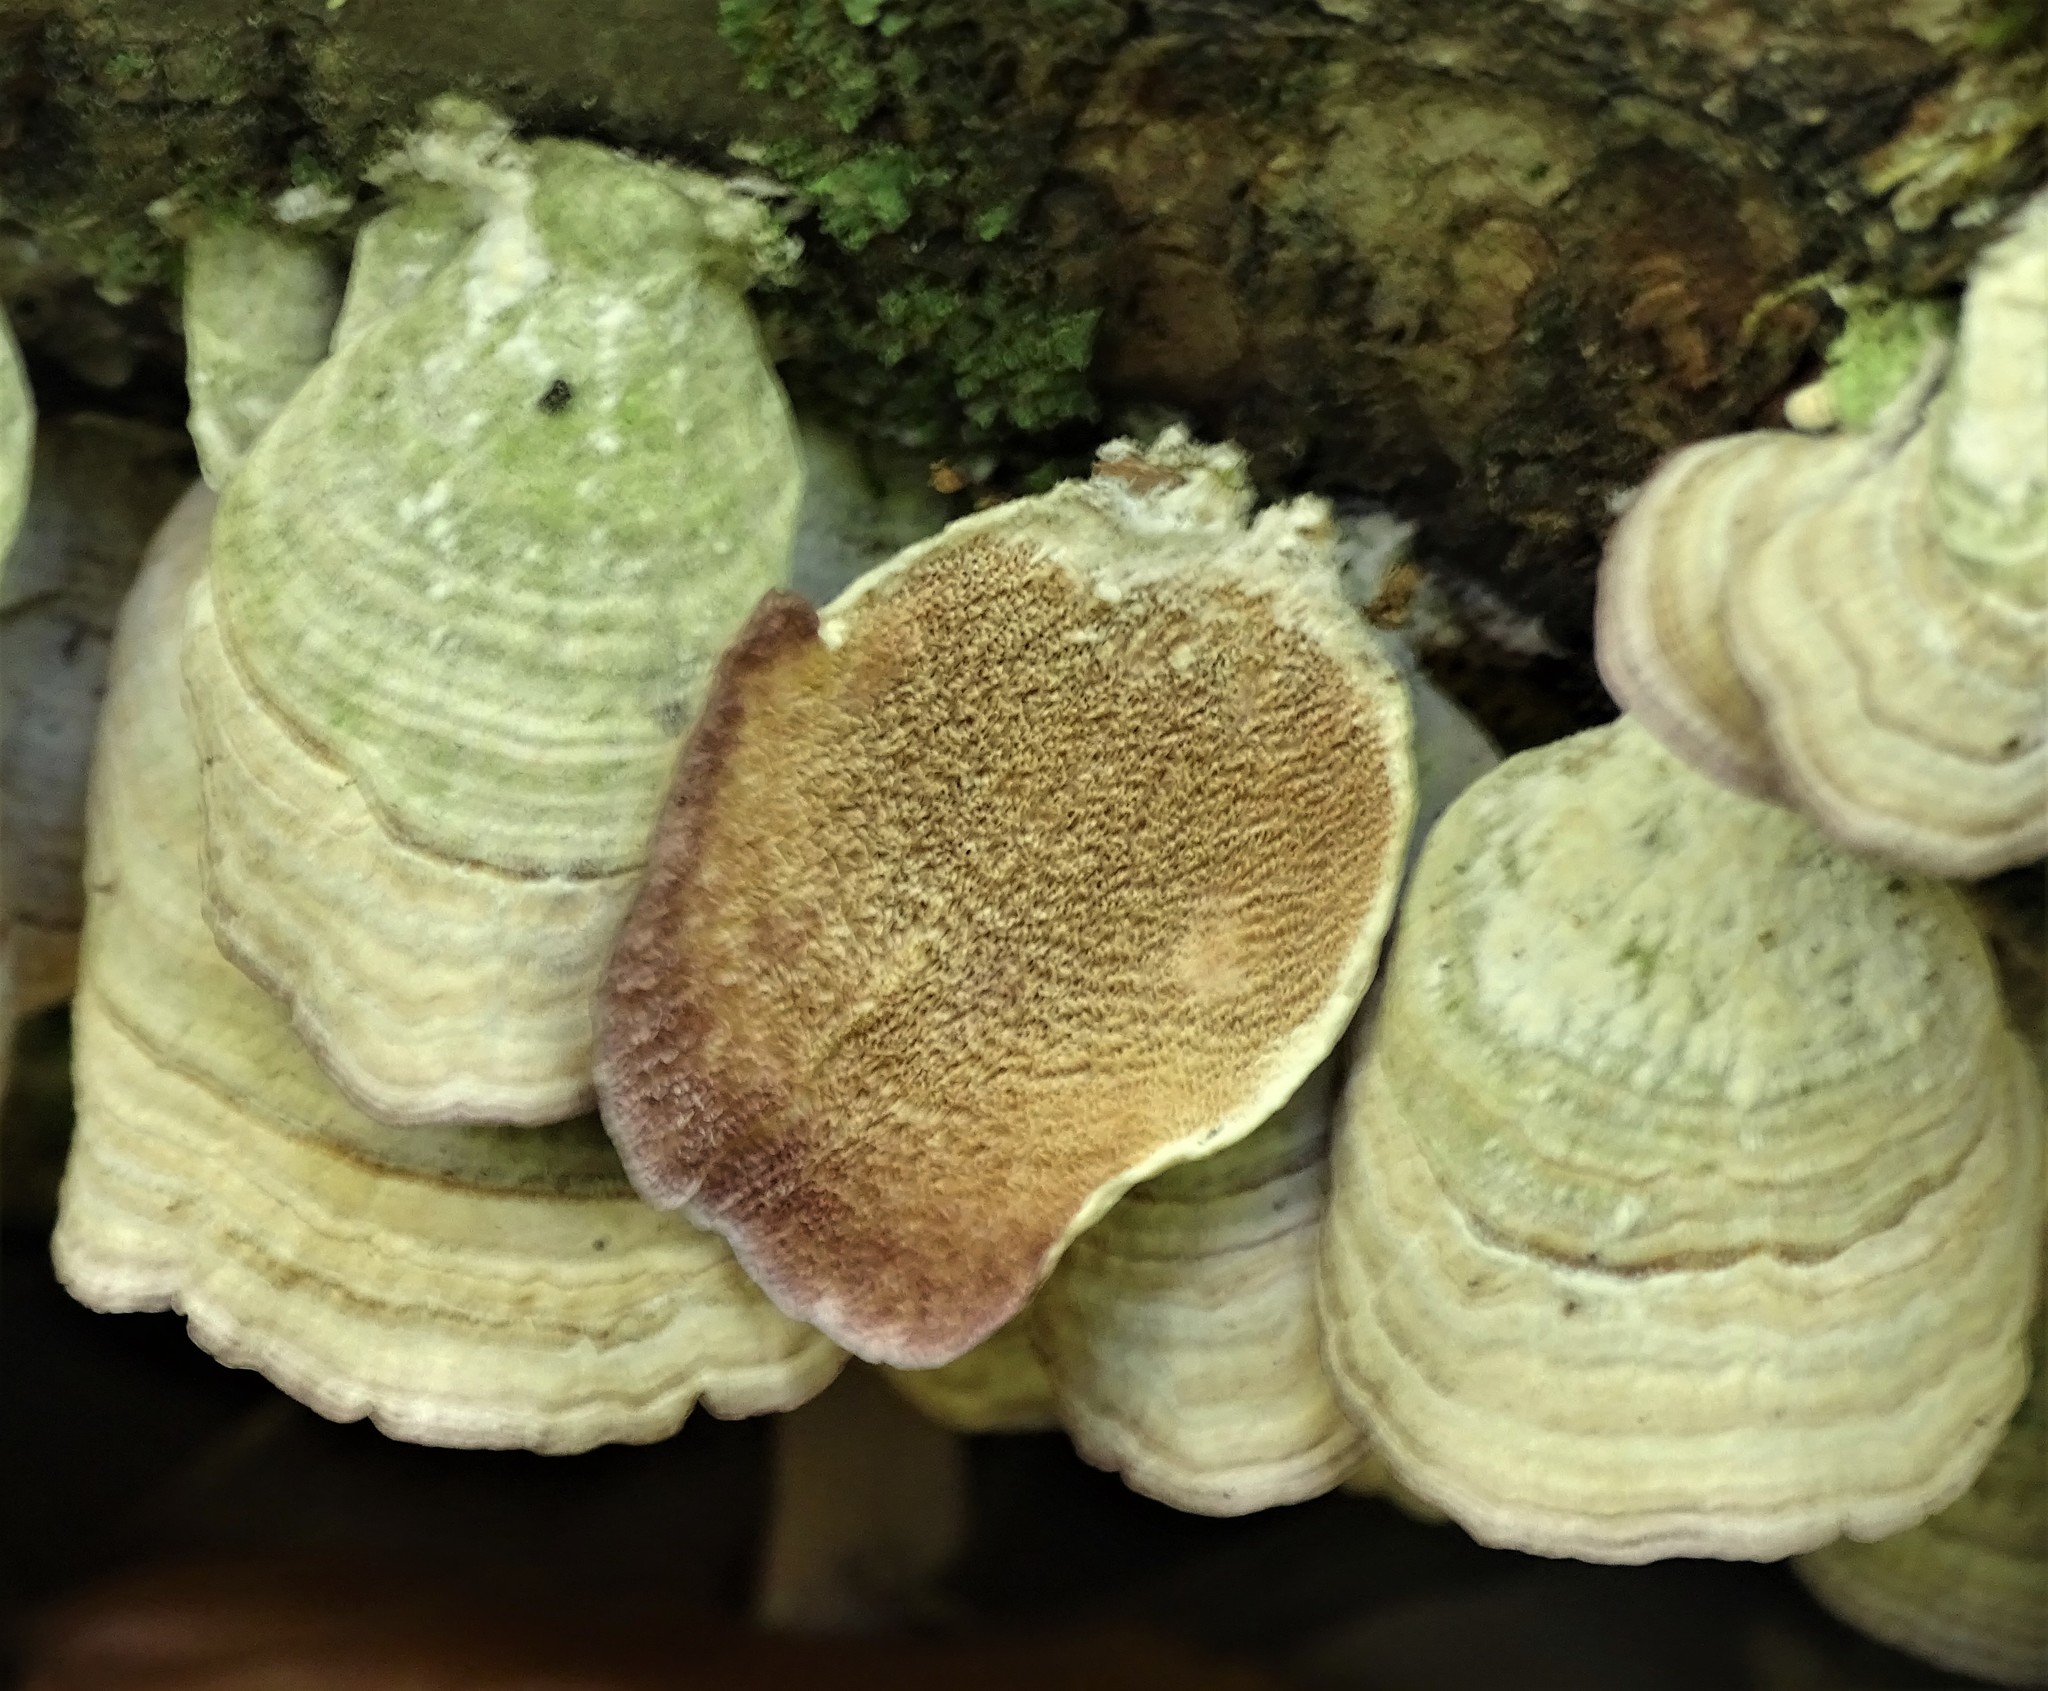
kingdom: Fungi
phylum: Basidiomycota
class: Agaricomycetes
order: Hymenochaetales
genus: Trichaptum
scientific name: Trichaptum biforme
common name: Violet-toothed polypore
